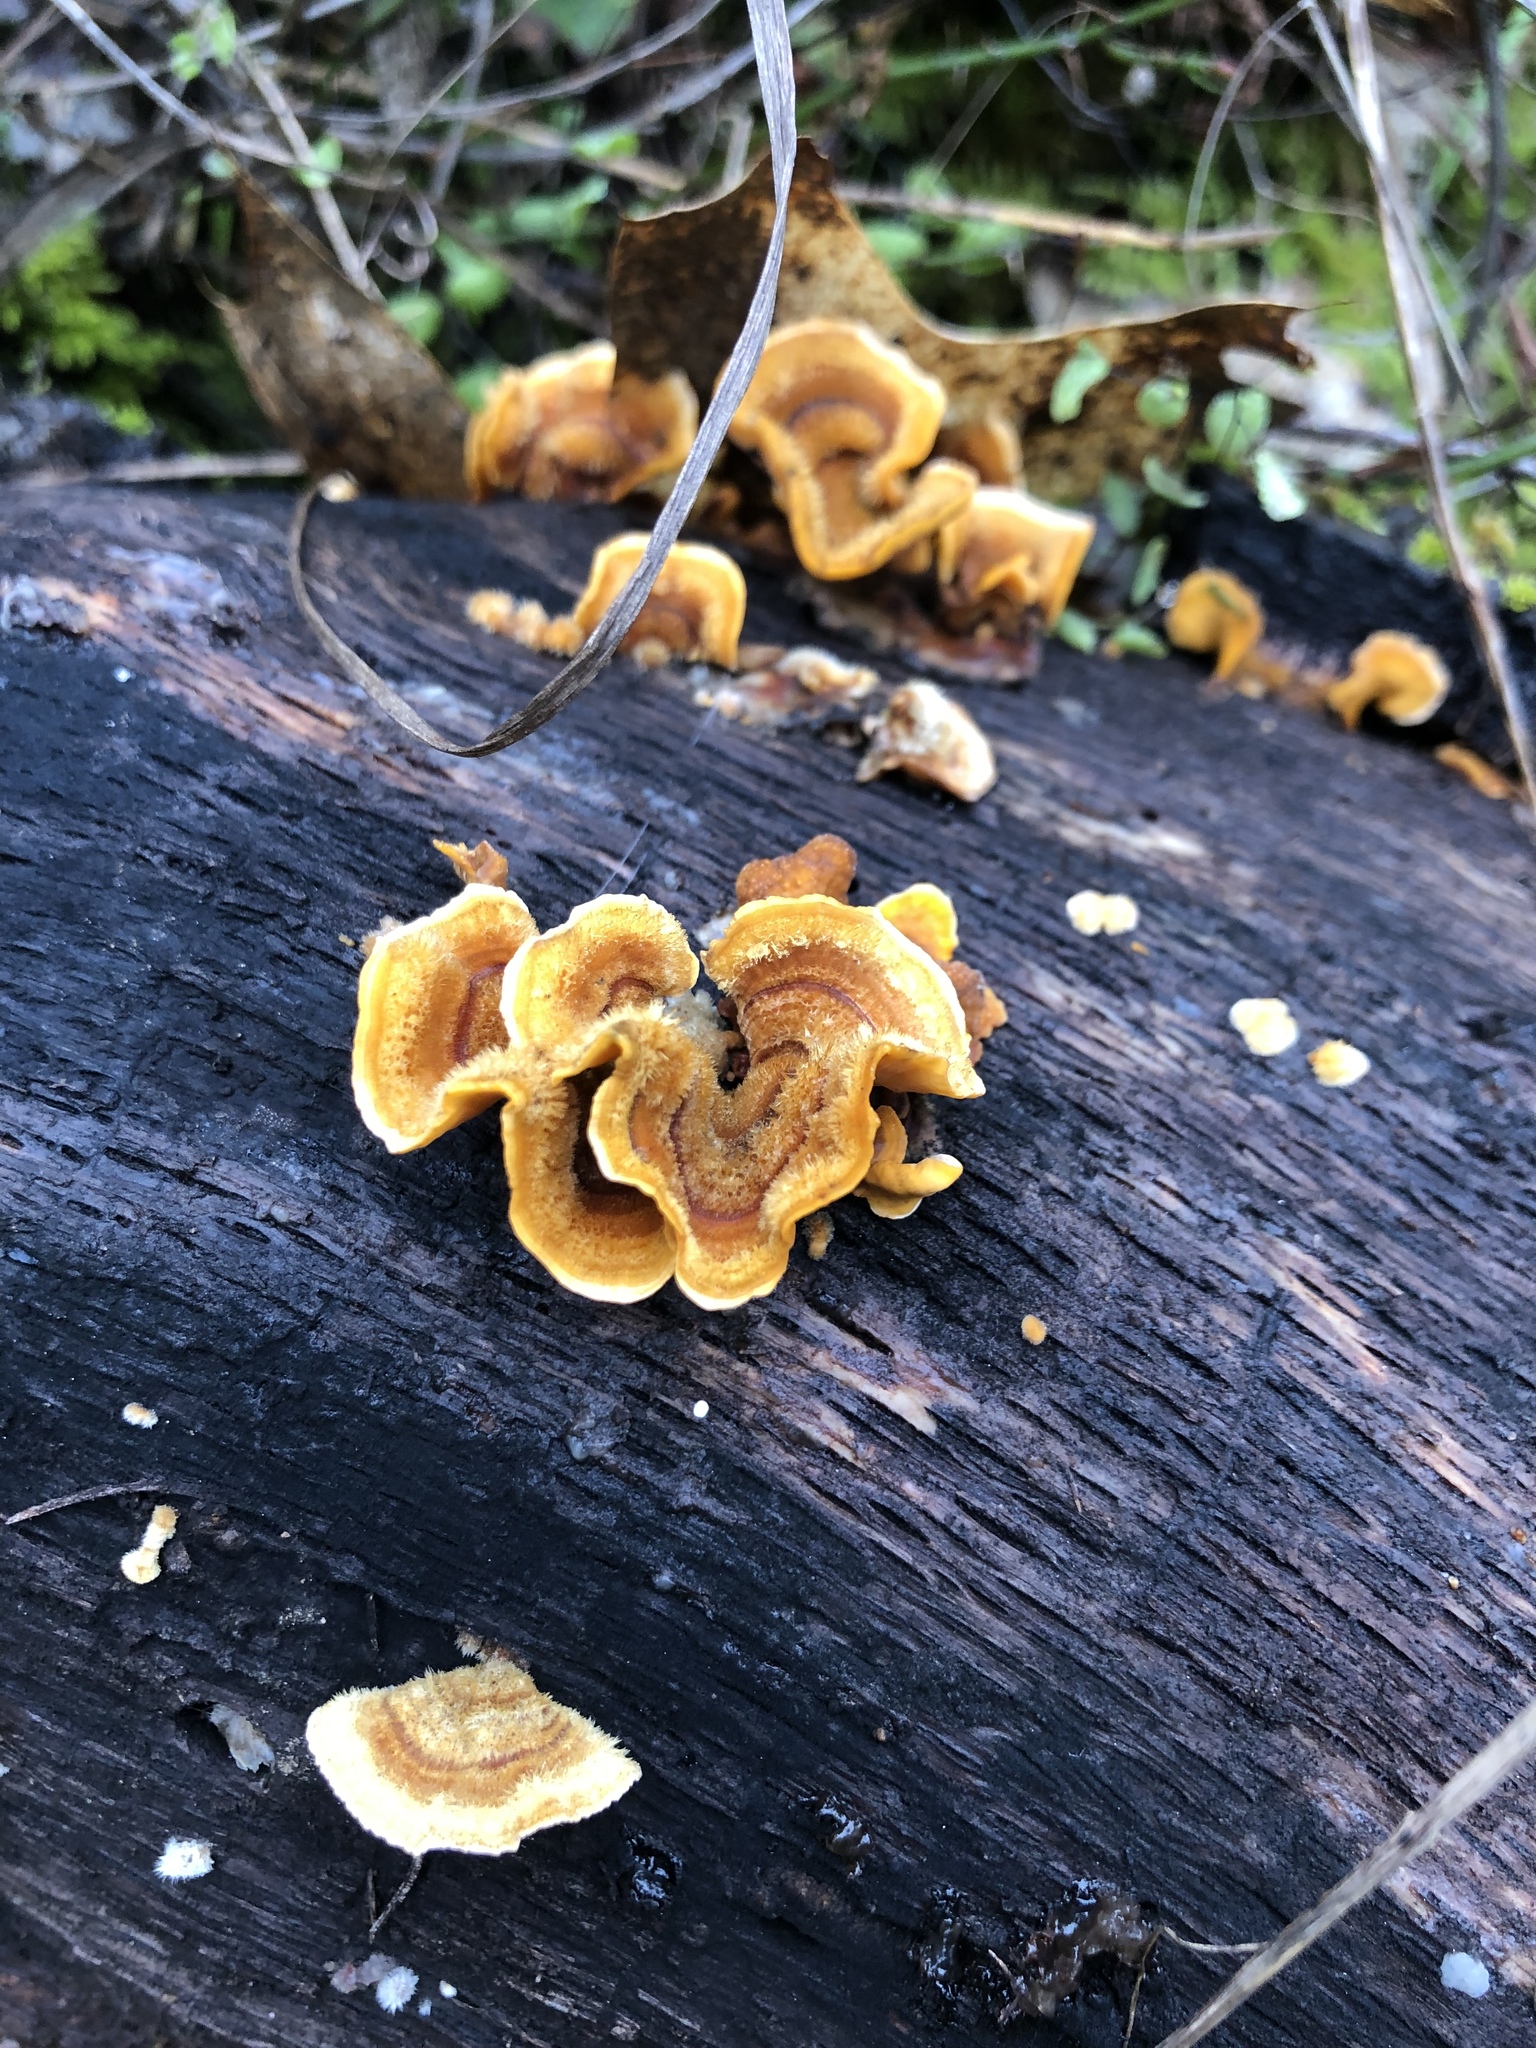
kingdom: Fungi
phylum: Basidiomycota
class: Agaricomycetes
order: Russulales
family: Stereaceae
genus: Stereum
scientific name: Stereum hirsutum
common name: Hairy curtain crust
